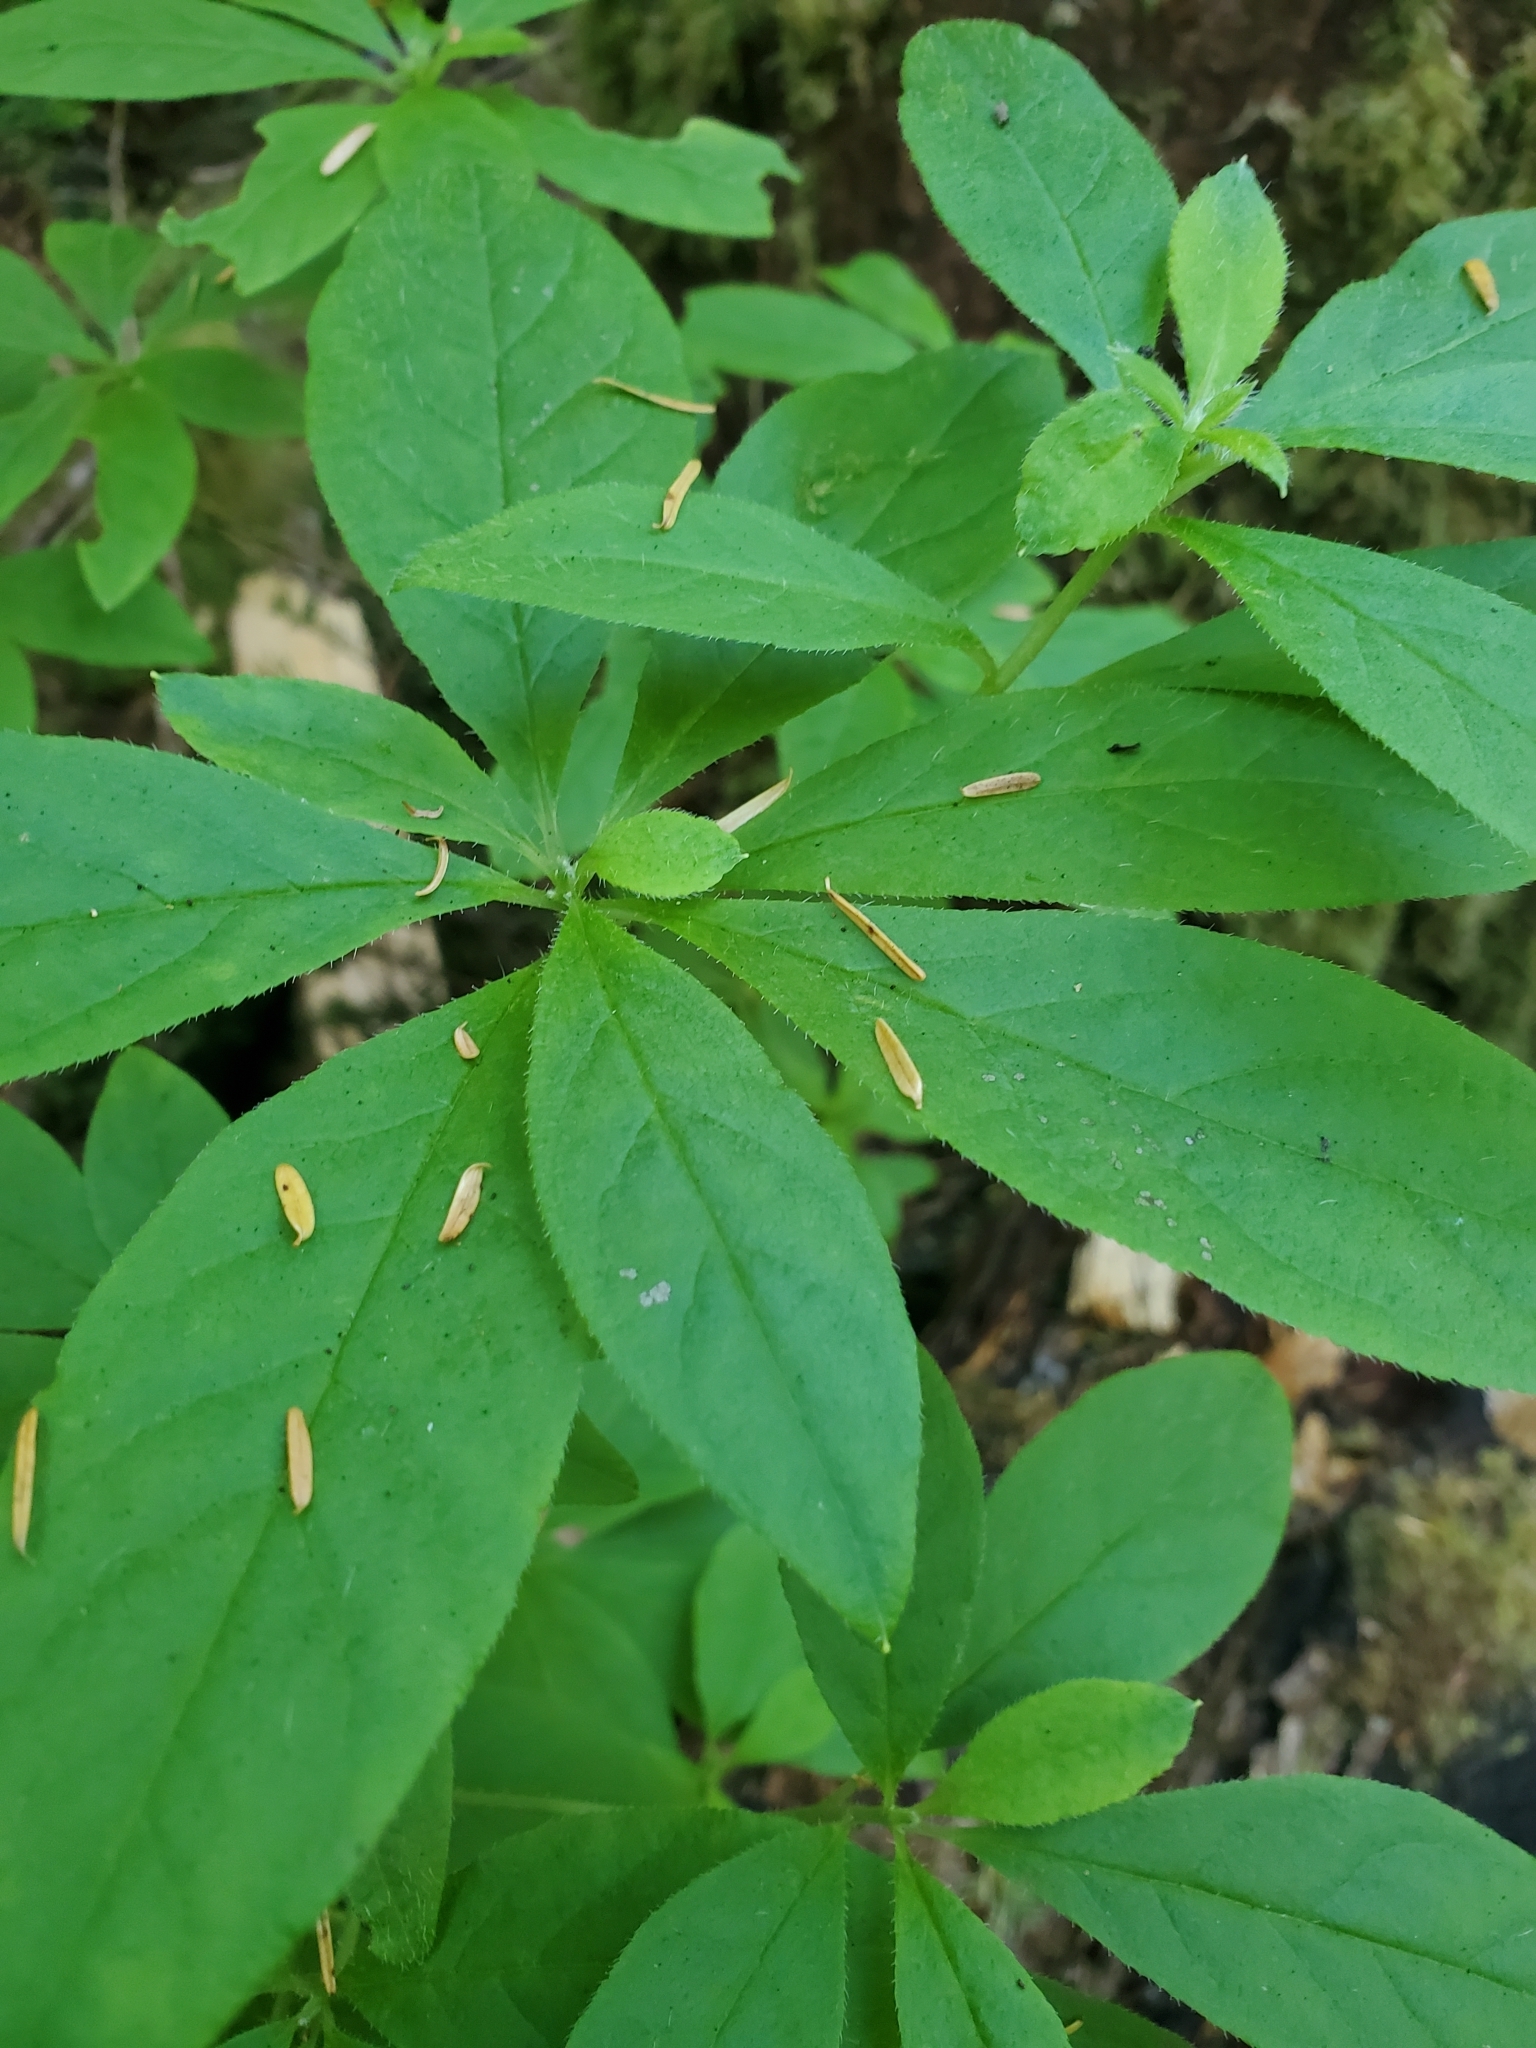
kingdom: Plantae
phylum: Tracheophyta
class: Magnoliopsida
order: Ericales
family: Ericaceae
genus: Rhododendron
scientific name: Rhododendron menziesii
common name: Pacific menziesia
